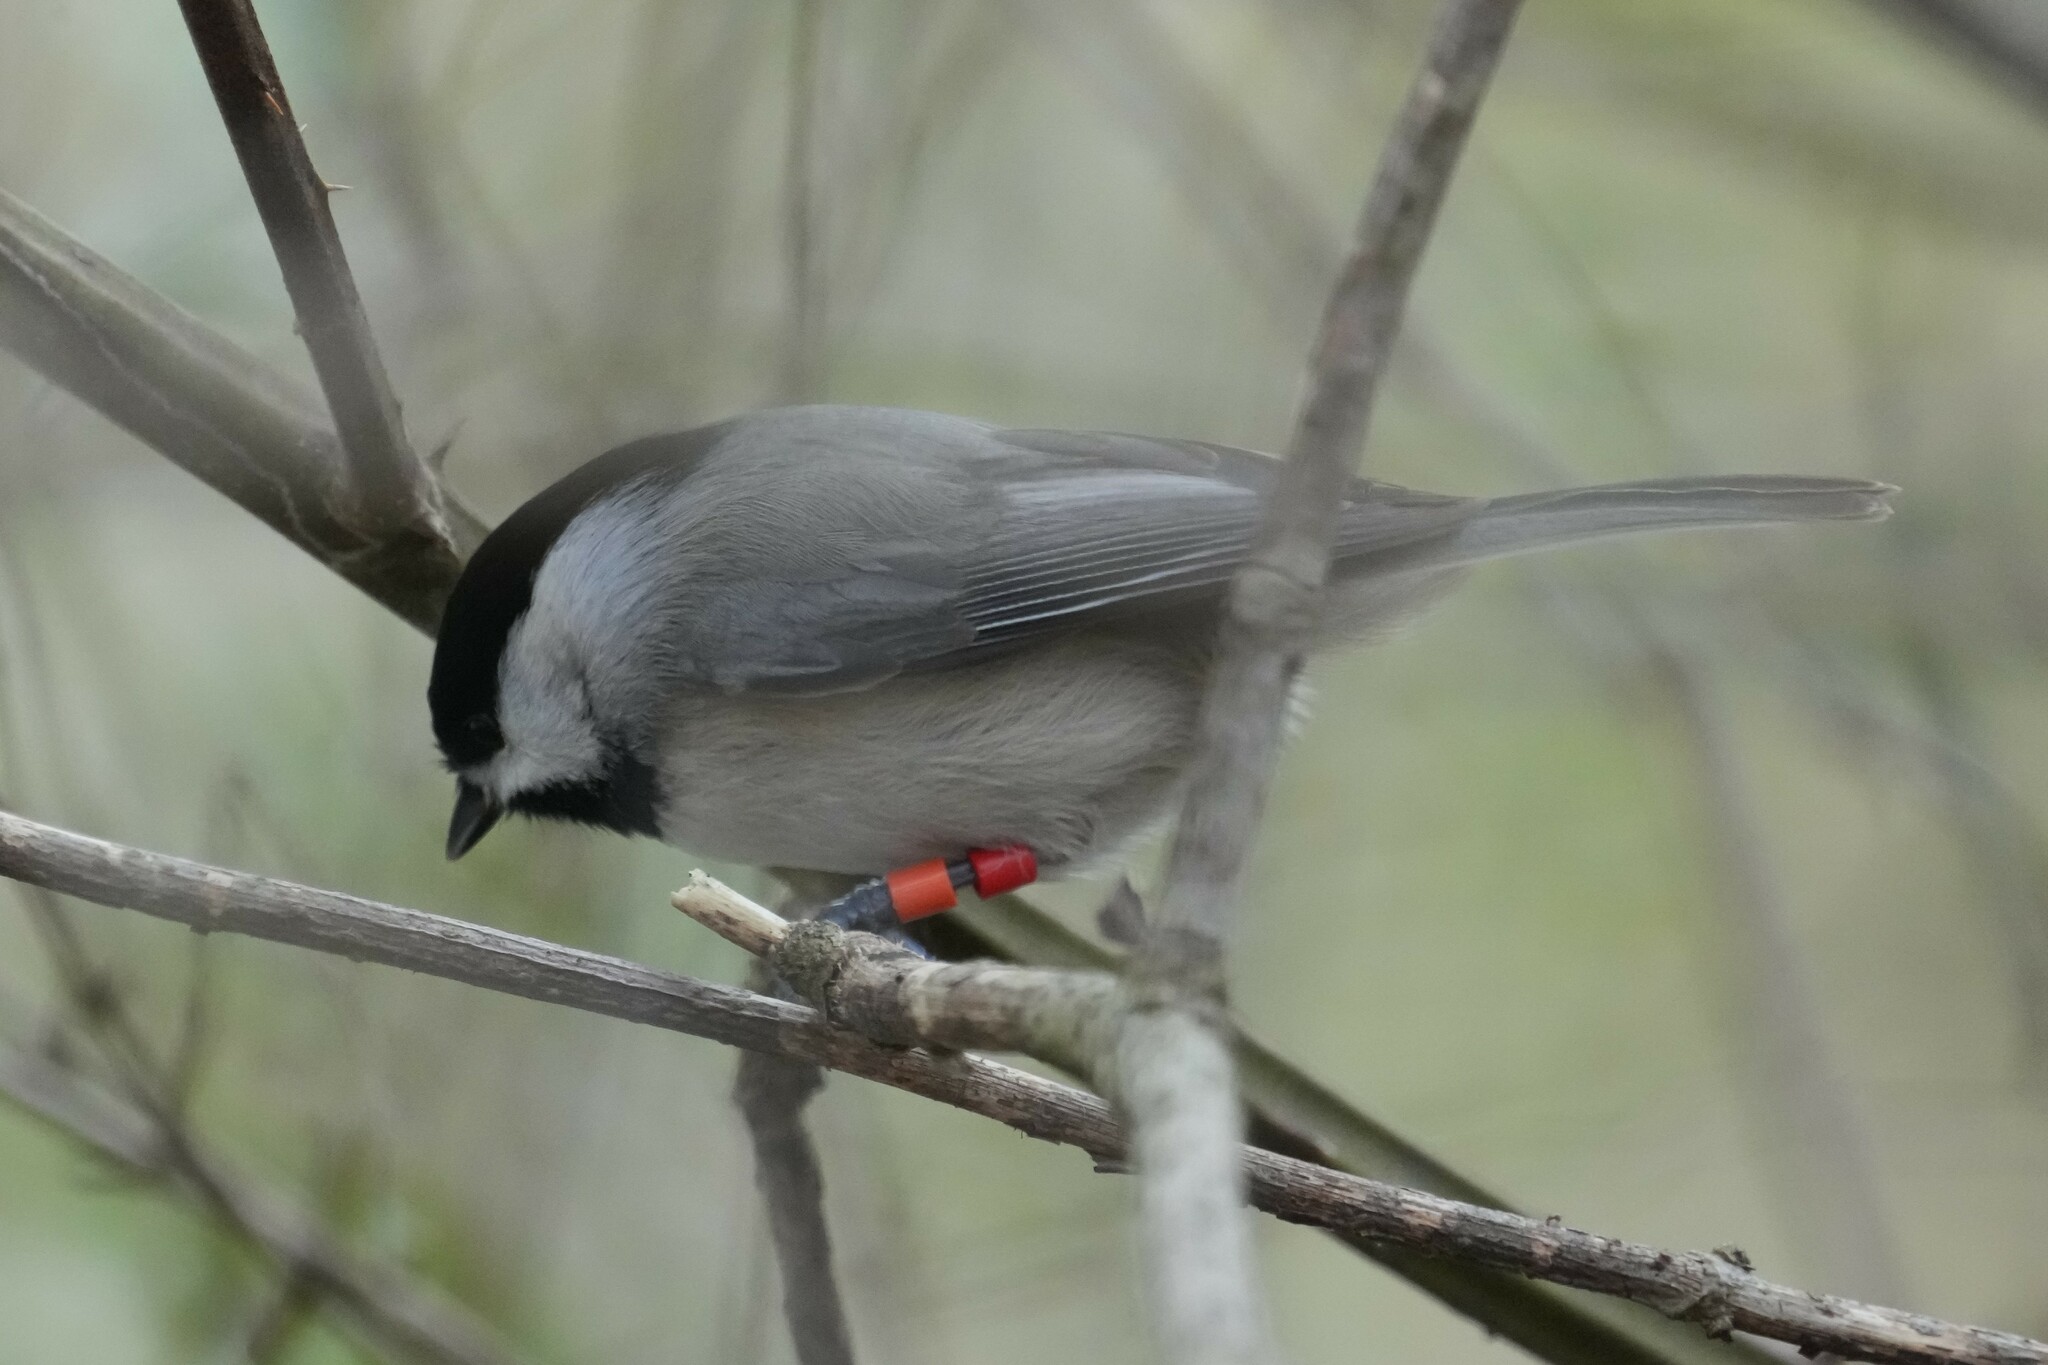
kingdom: Animalia
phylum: Chordata
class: Aves
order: Passeriformes
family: Paridae
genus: Poecile
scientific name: Poecile carolinensis
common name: Carolina chickadee
